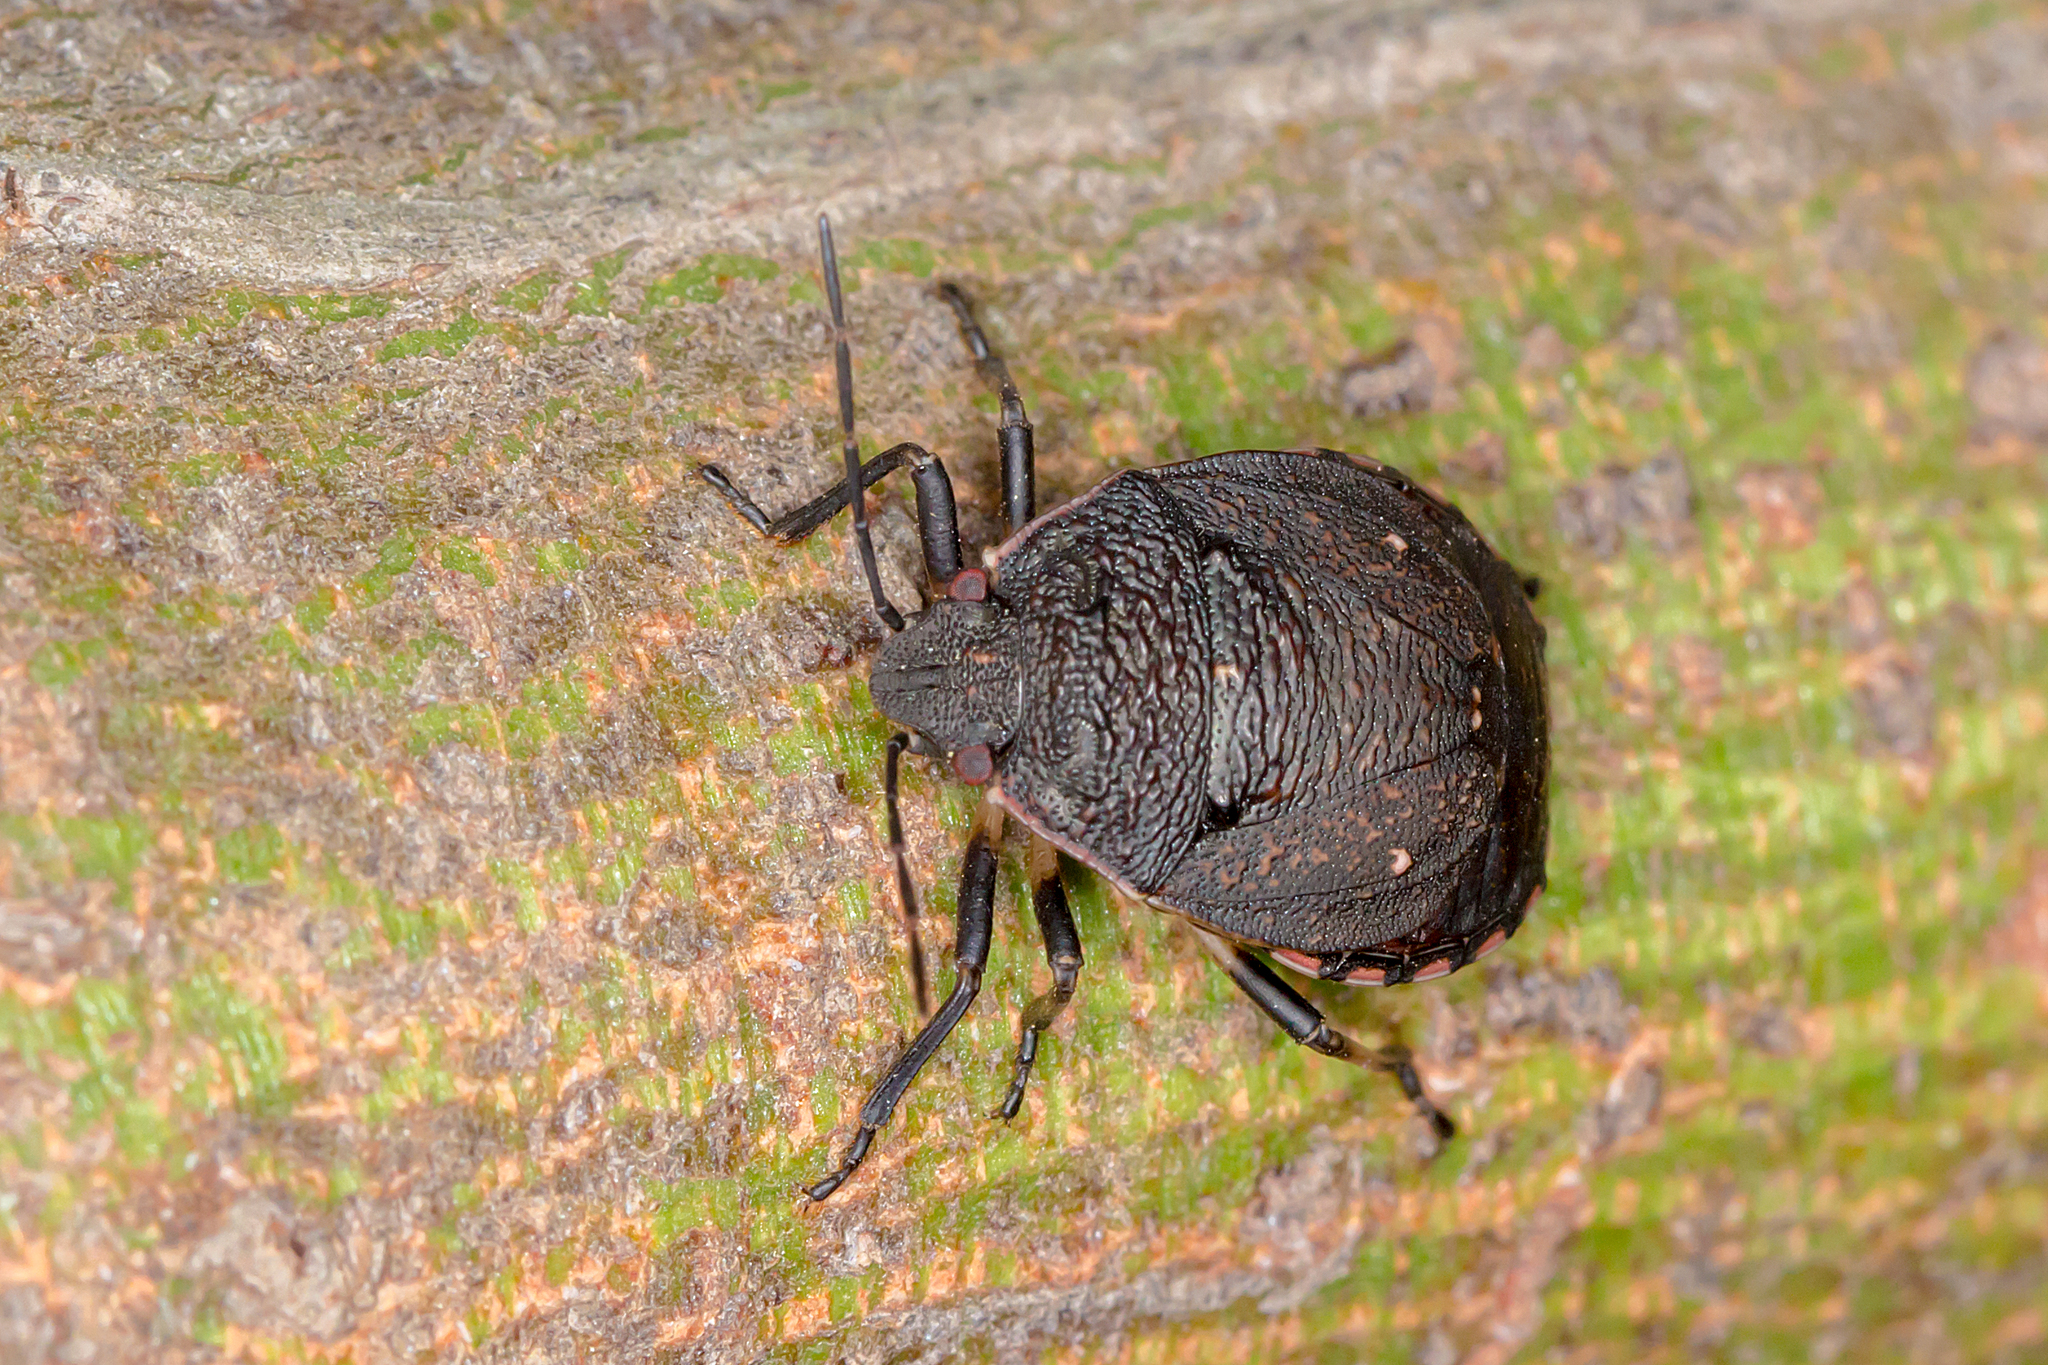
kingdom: Animalia
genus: Platycoris
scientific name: Platycoris
